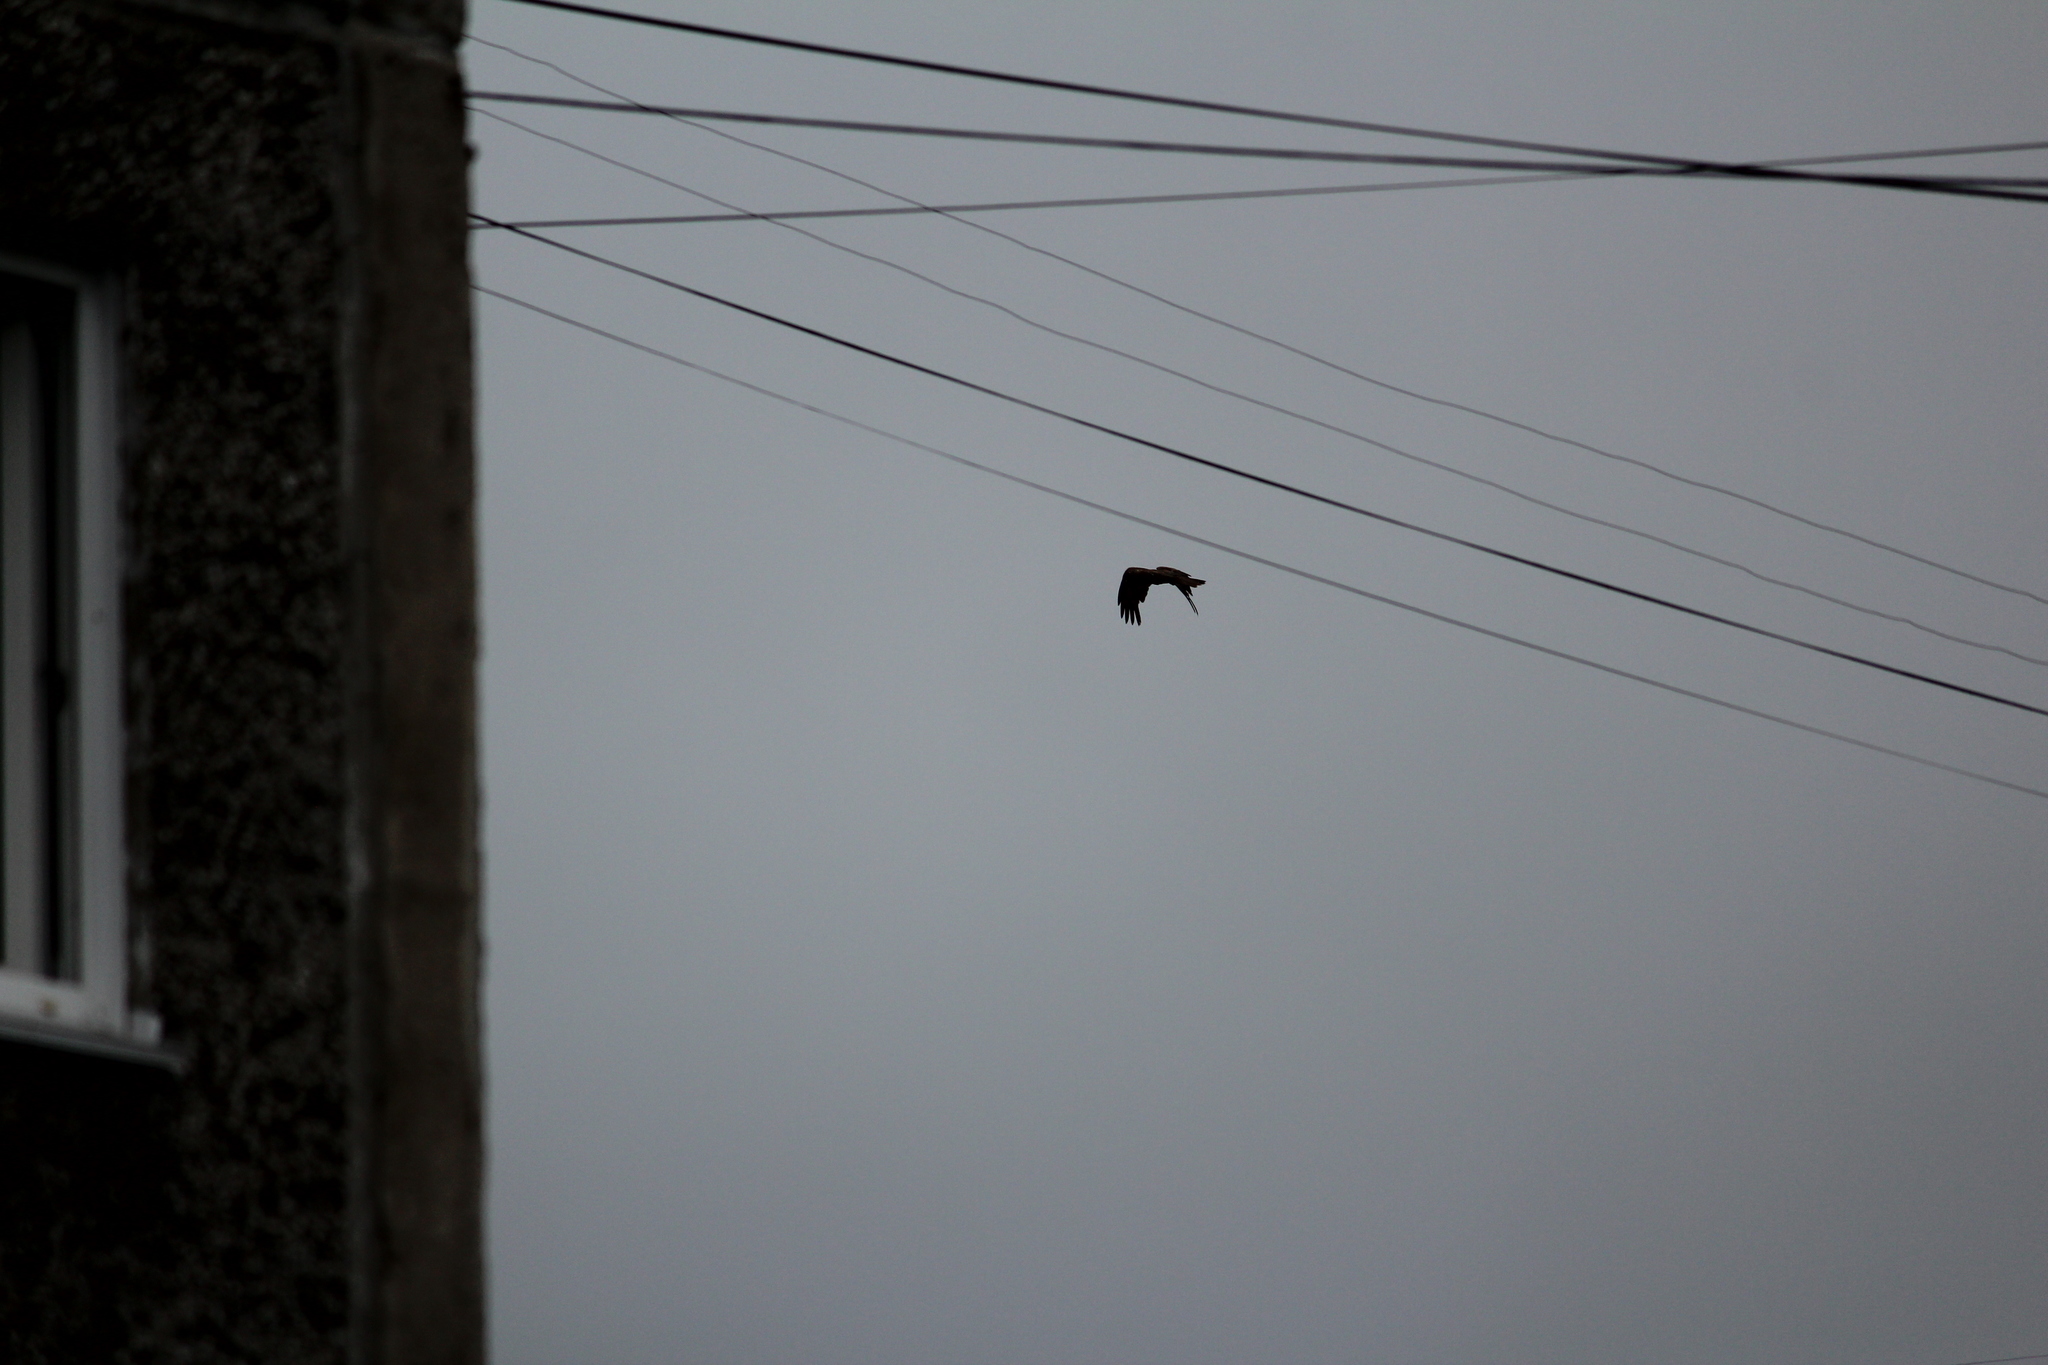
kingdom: Animalia
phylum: Chordata
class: Aves
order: Accipitriformes
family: Accipitridae
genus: Milvus
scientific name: Milvus migrans
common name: Black kite
